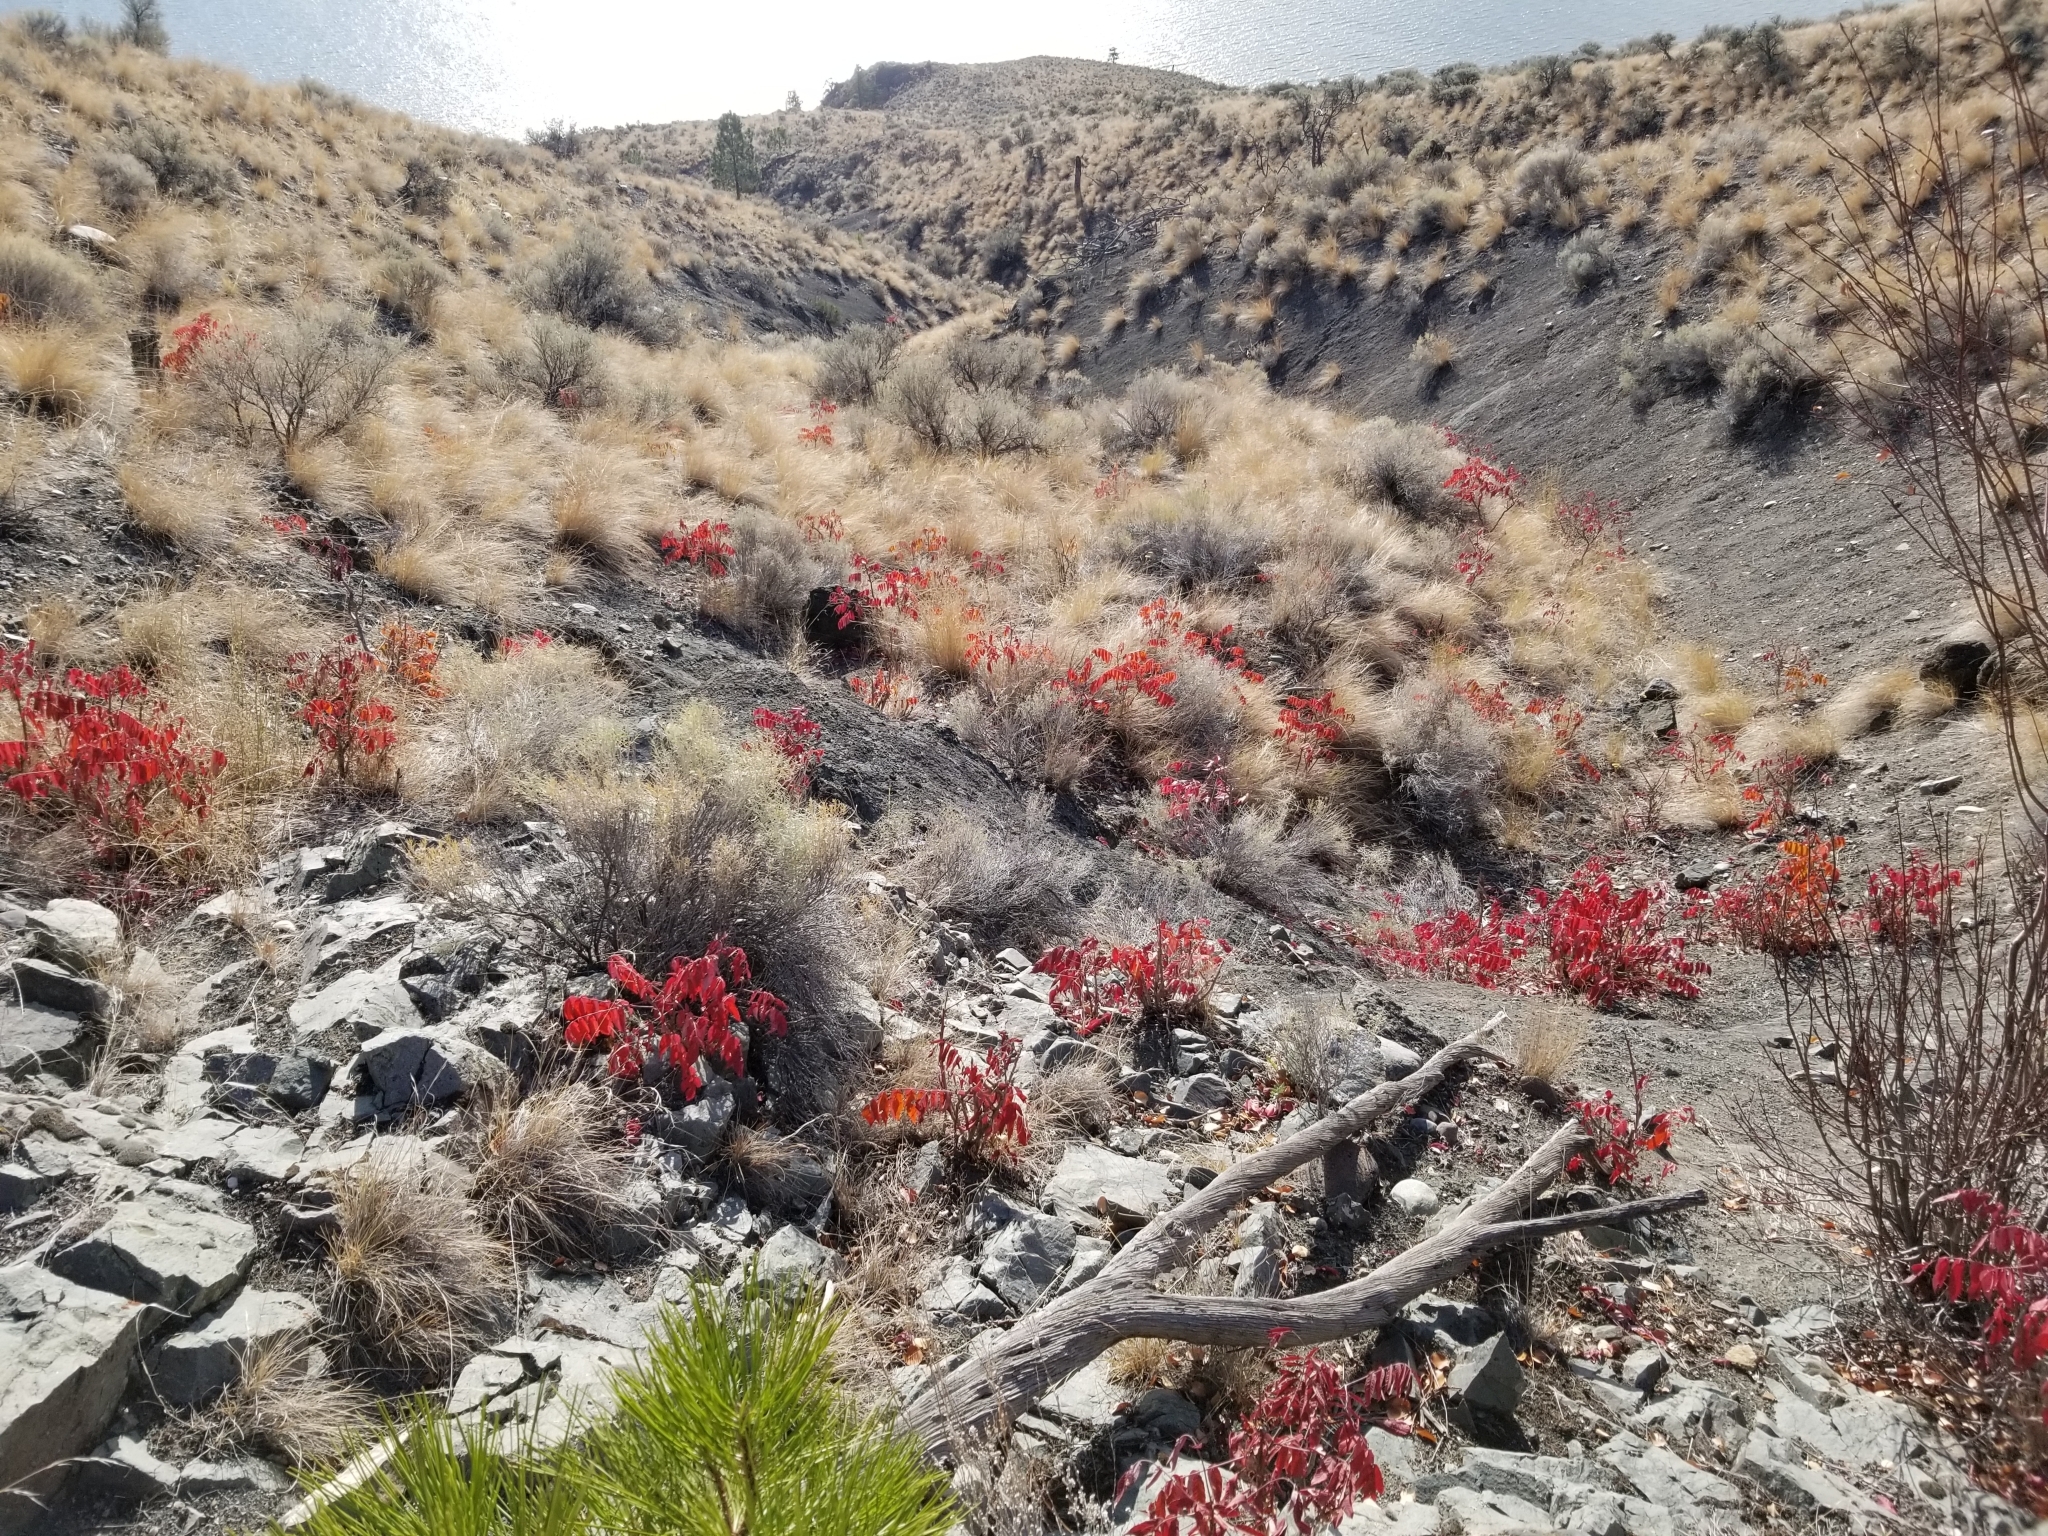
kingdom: Plantae
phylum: Tracheophyta
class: Magnoliopsida
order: Sapindales
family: Anacardiaceae
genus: Rhus
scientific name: Rhus glabra
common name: Scarlet sumac
